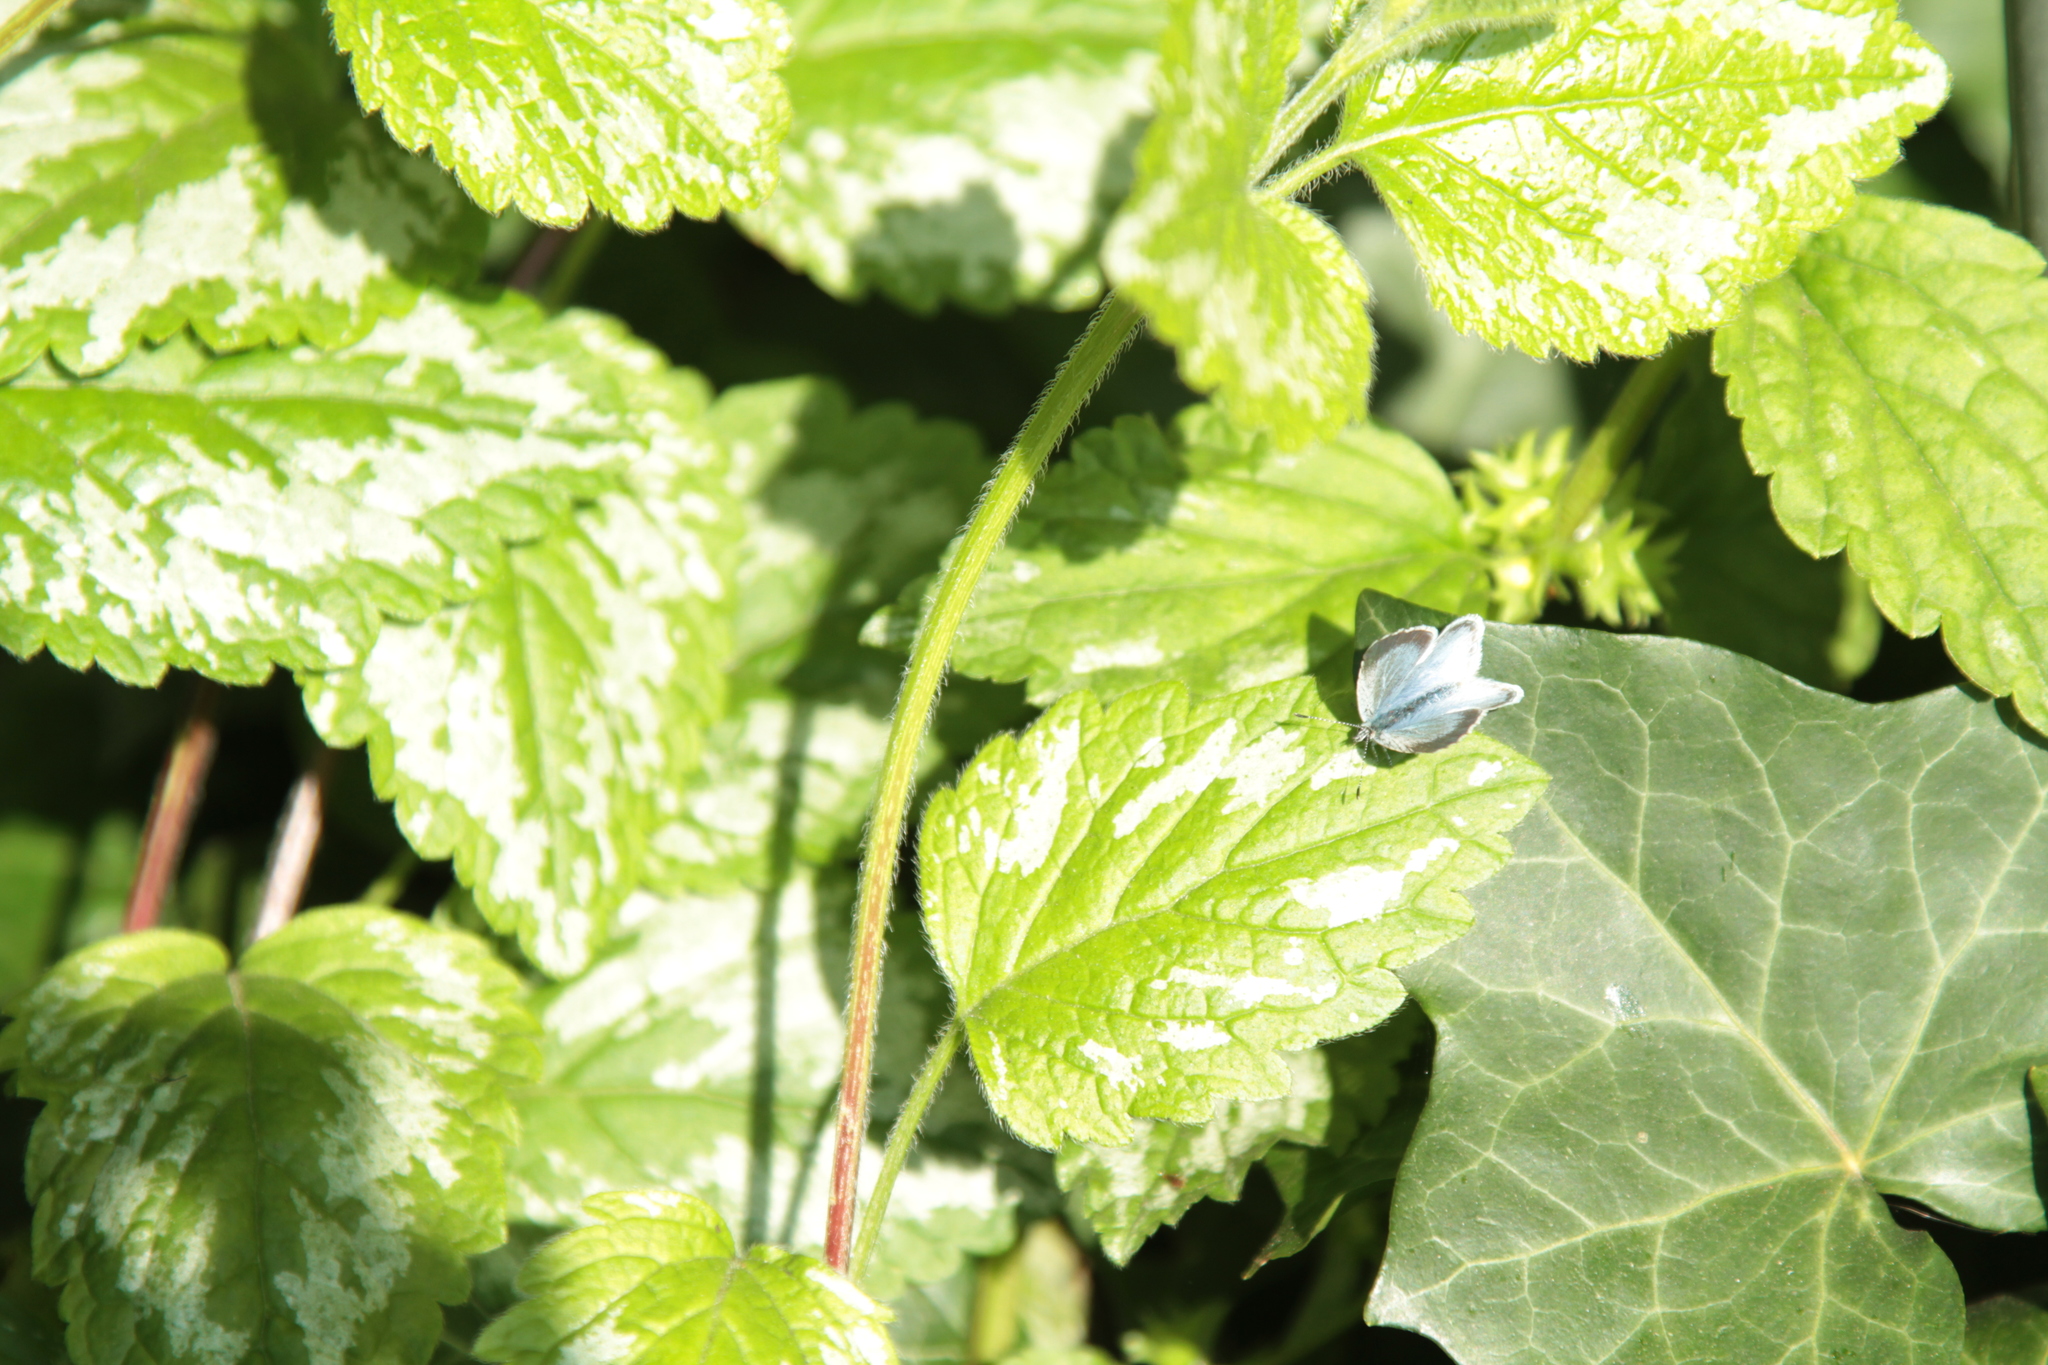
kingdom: Animalia
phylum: Arthropoda
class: Insecta
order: Lepidoptera
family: Lycaenidae
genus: Celastrina
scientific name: Celastrina argiolus
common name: Holly blue
